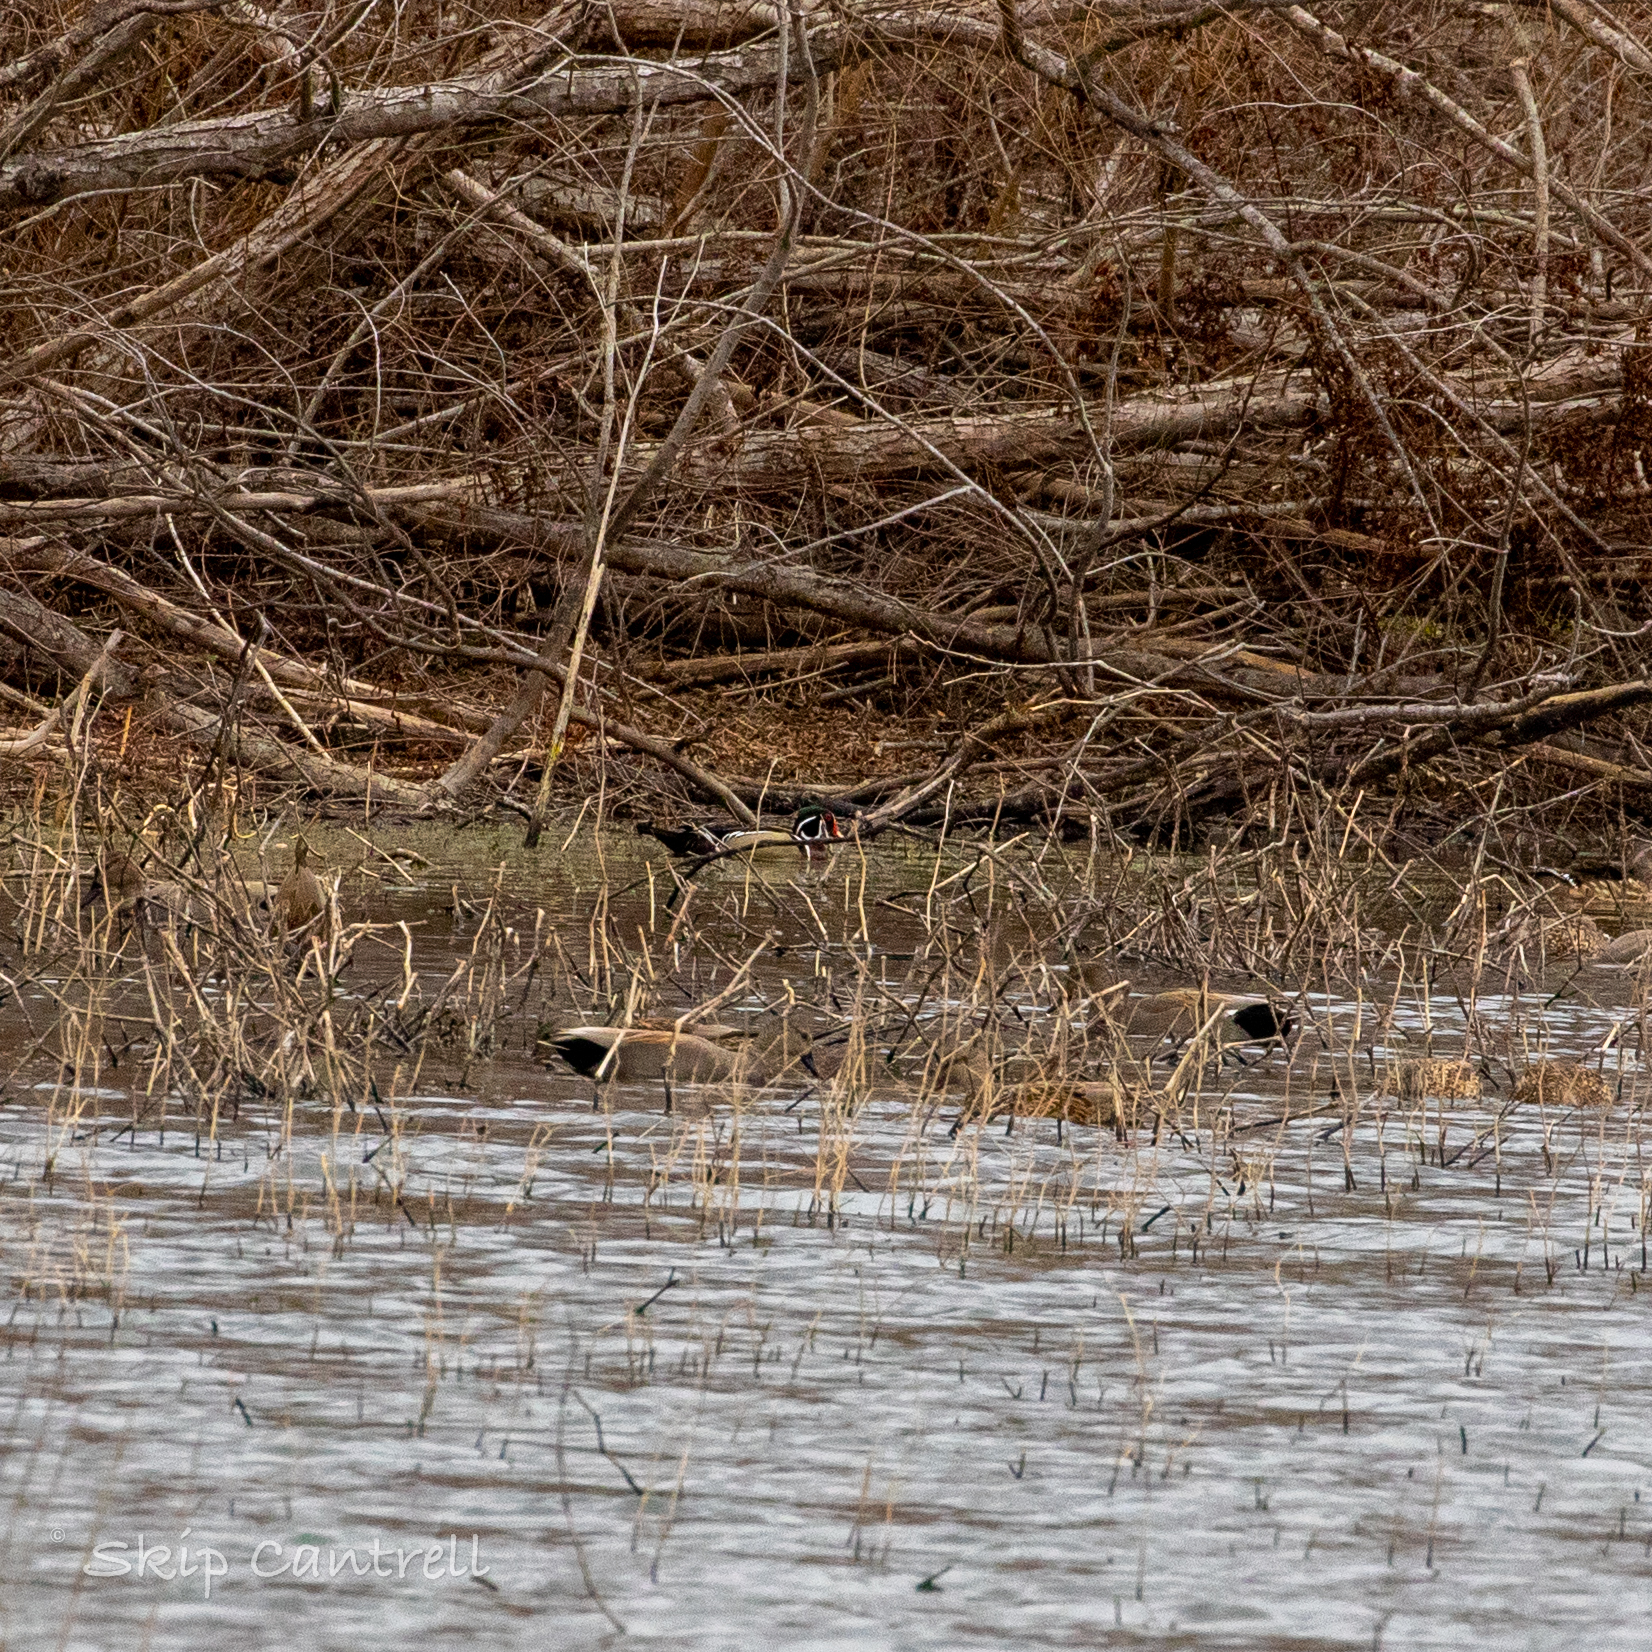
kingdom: Animalia
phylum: Chordata
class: Aves
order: Anseriformes
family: Anatidae
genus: Aix
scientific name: Aix sponsa
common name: Wood duck
